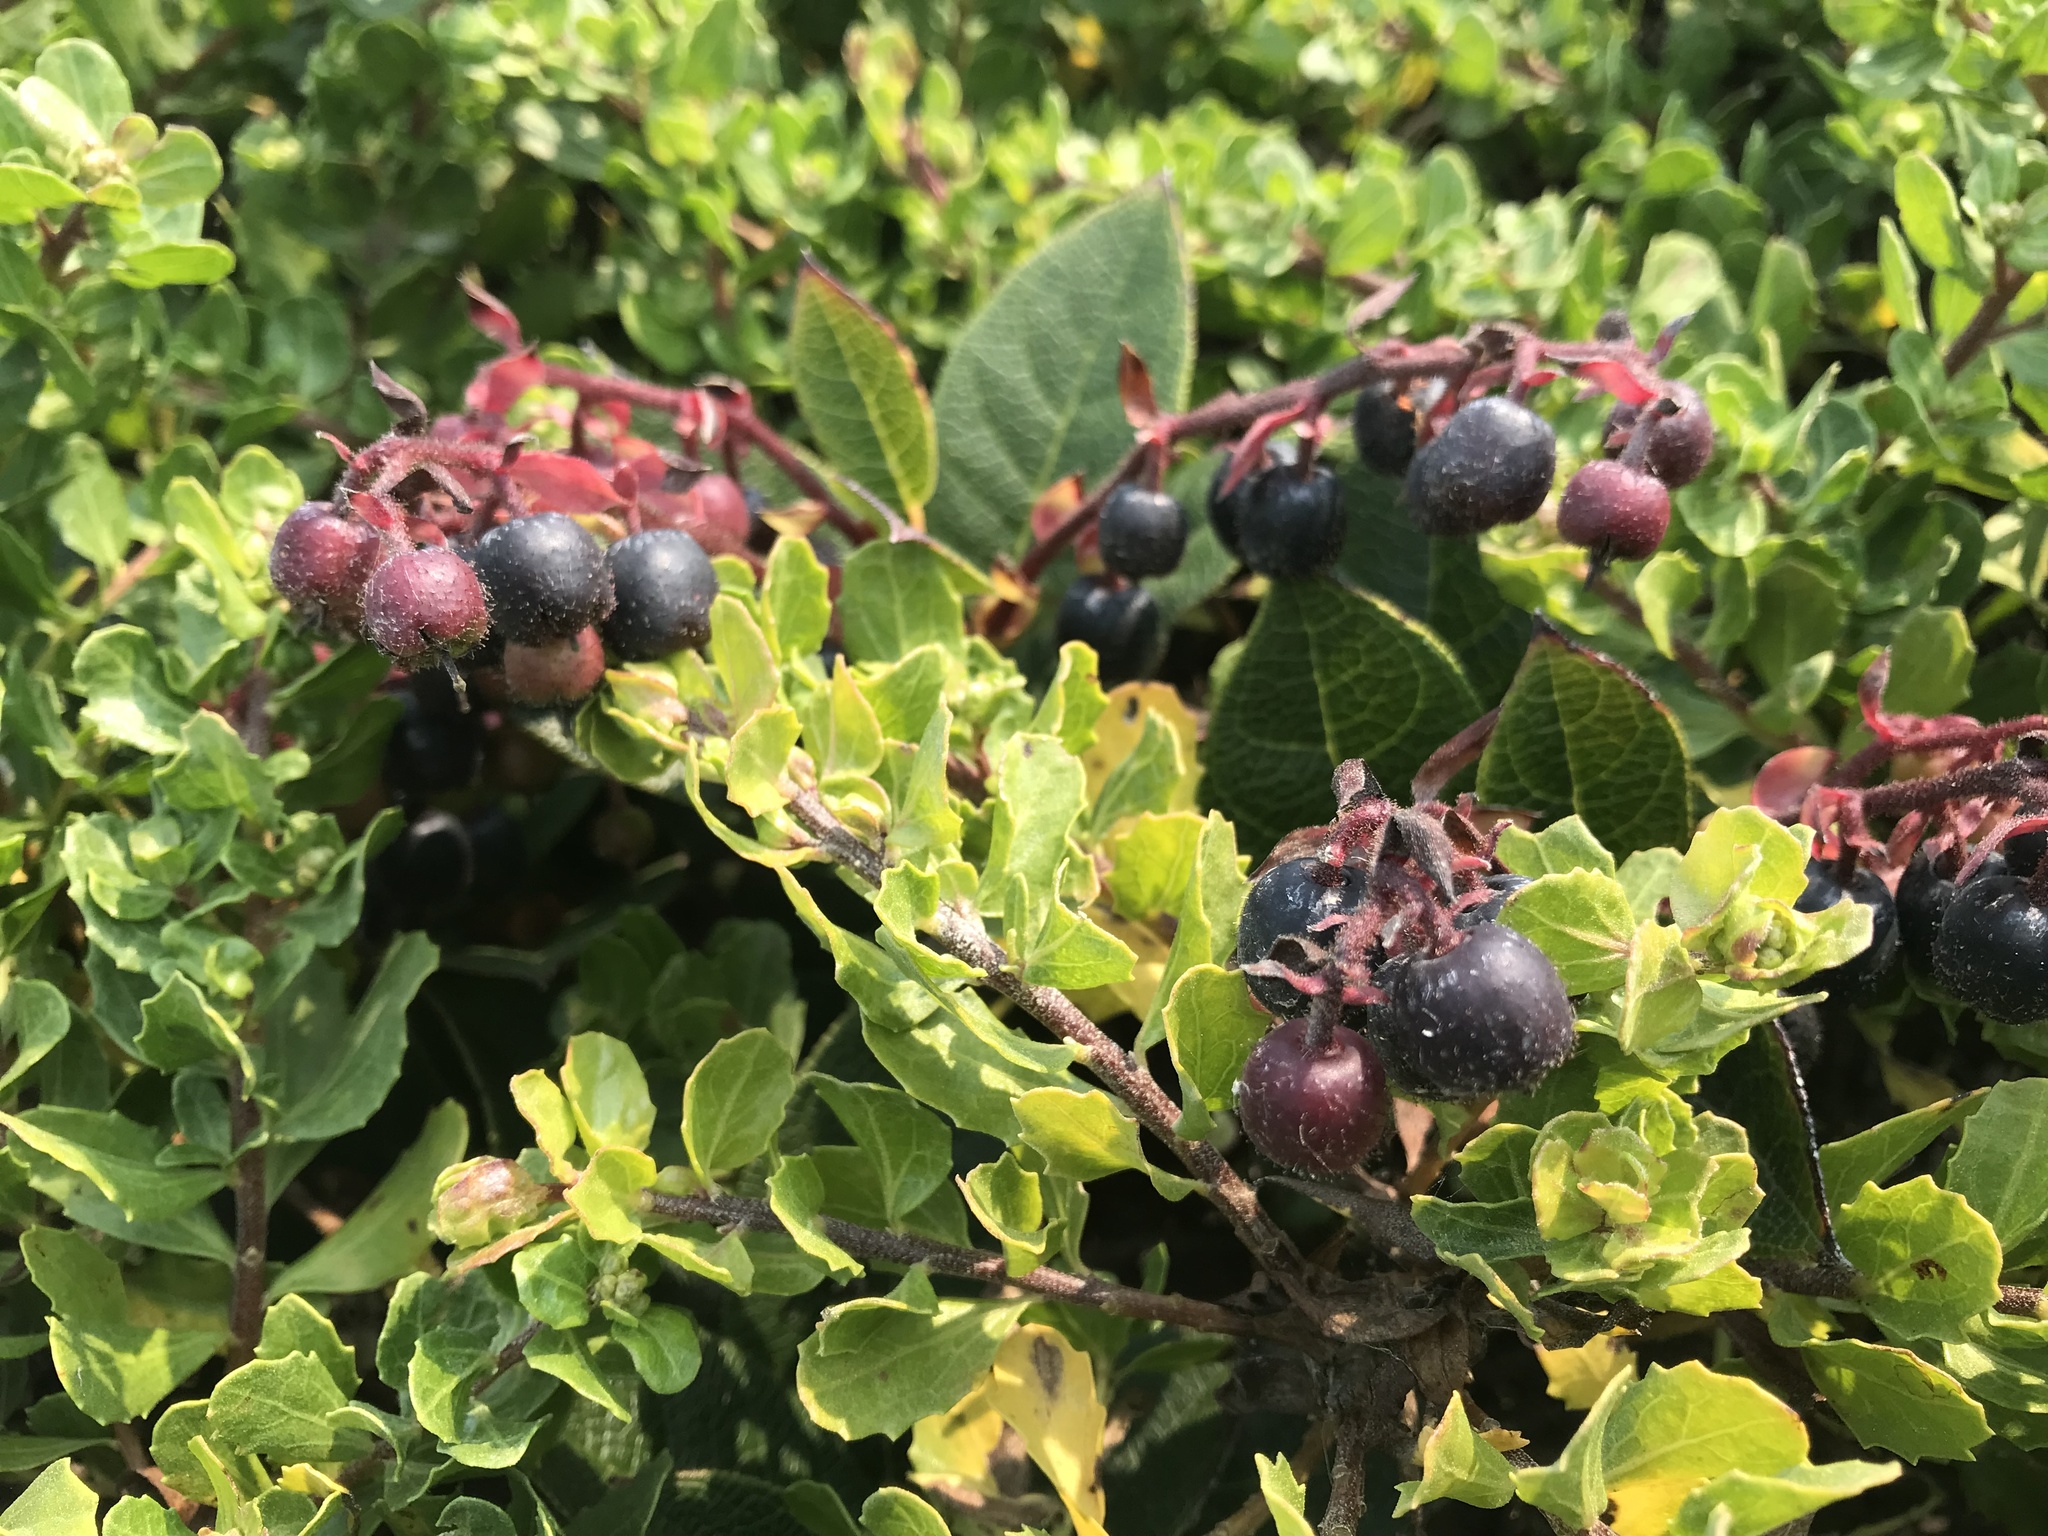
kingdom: Plantae
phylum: Tracheophyta
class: Magnoliopsida
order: Ericales
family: Ericaceae
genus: Gaultheria
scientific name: Gaultheria shallon
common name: Shallon
